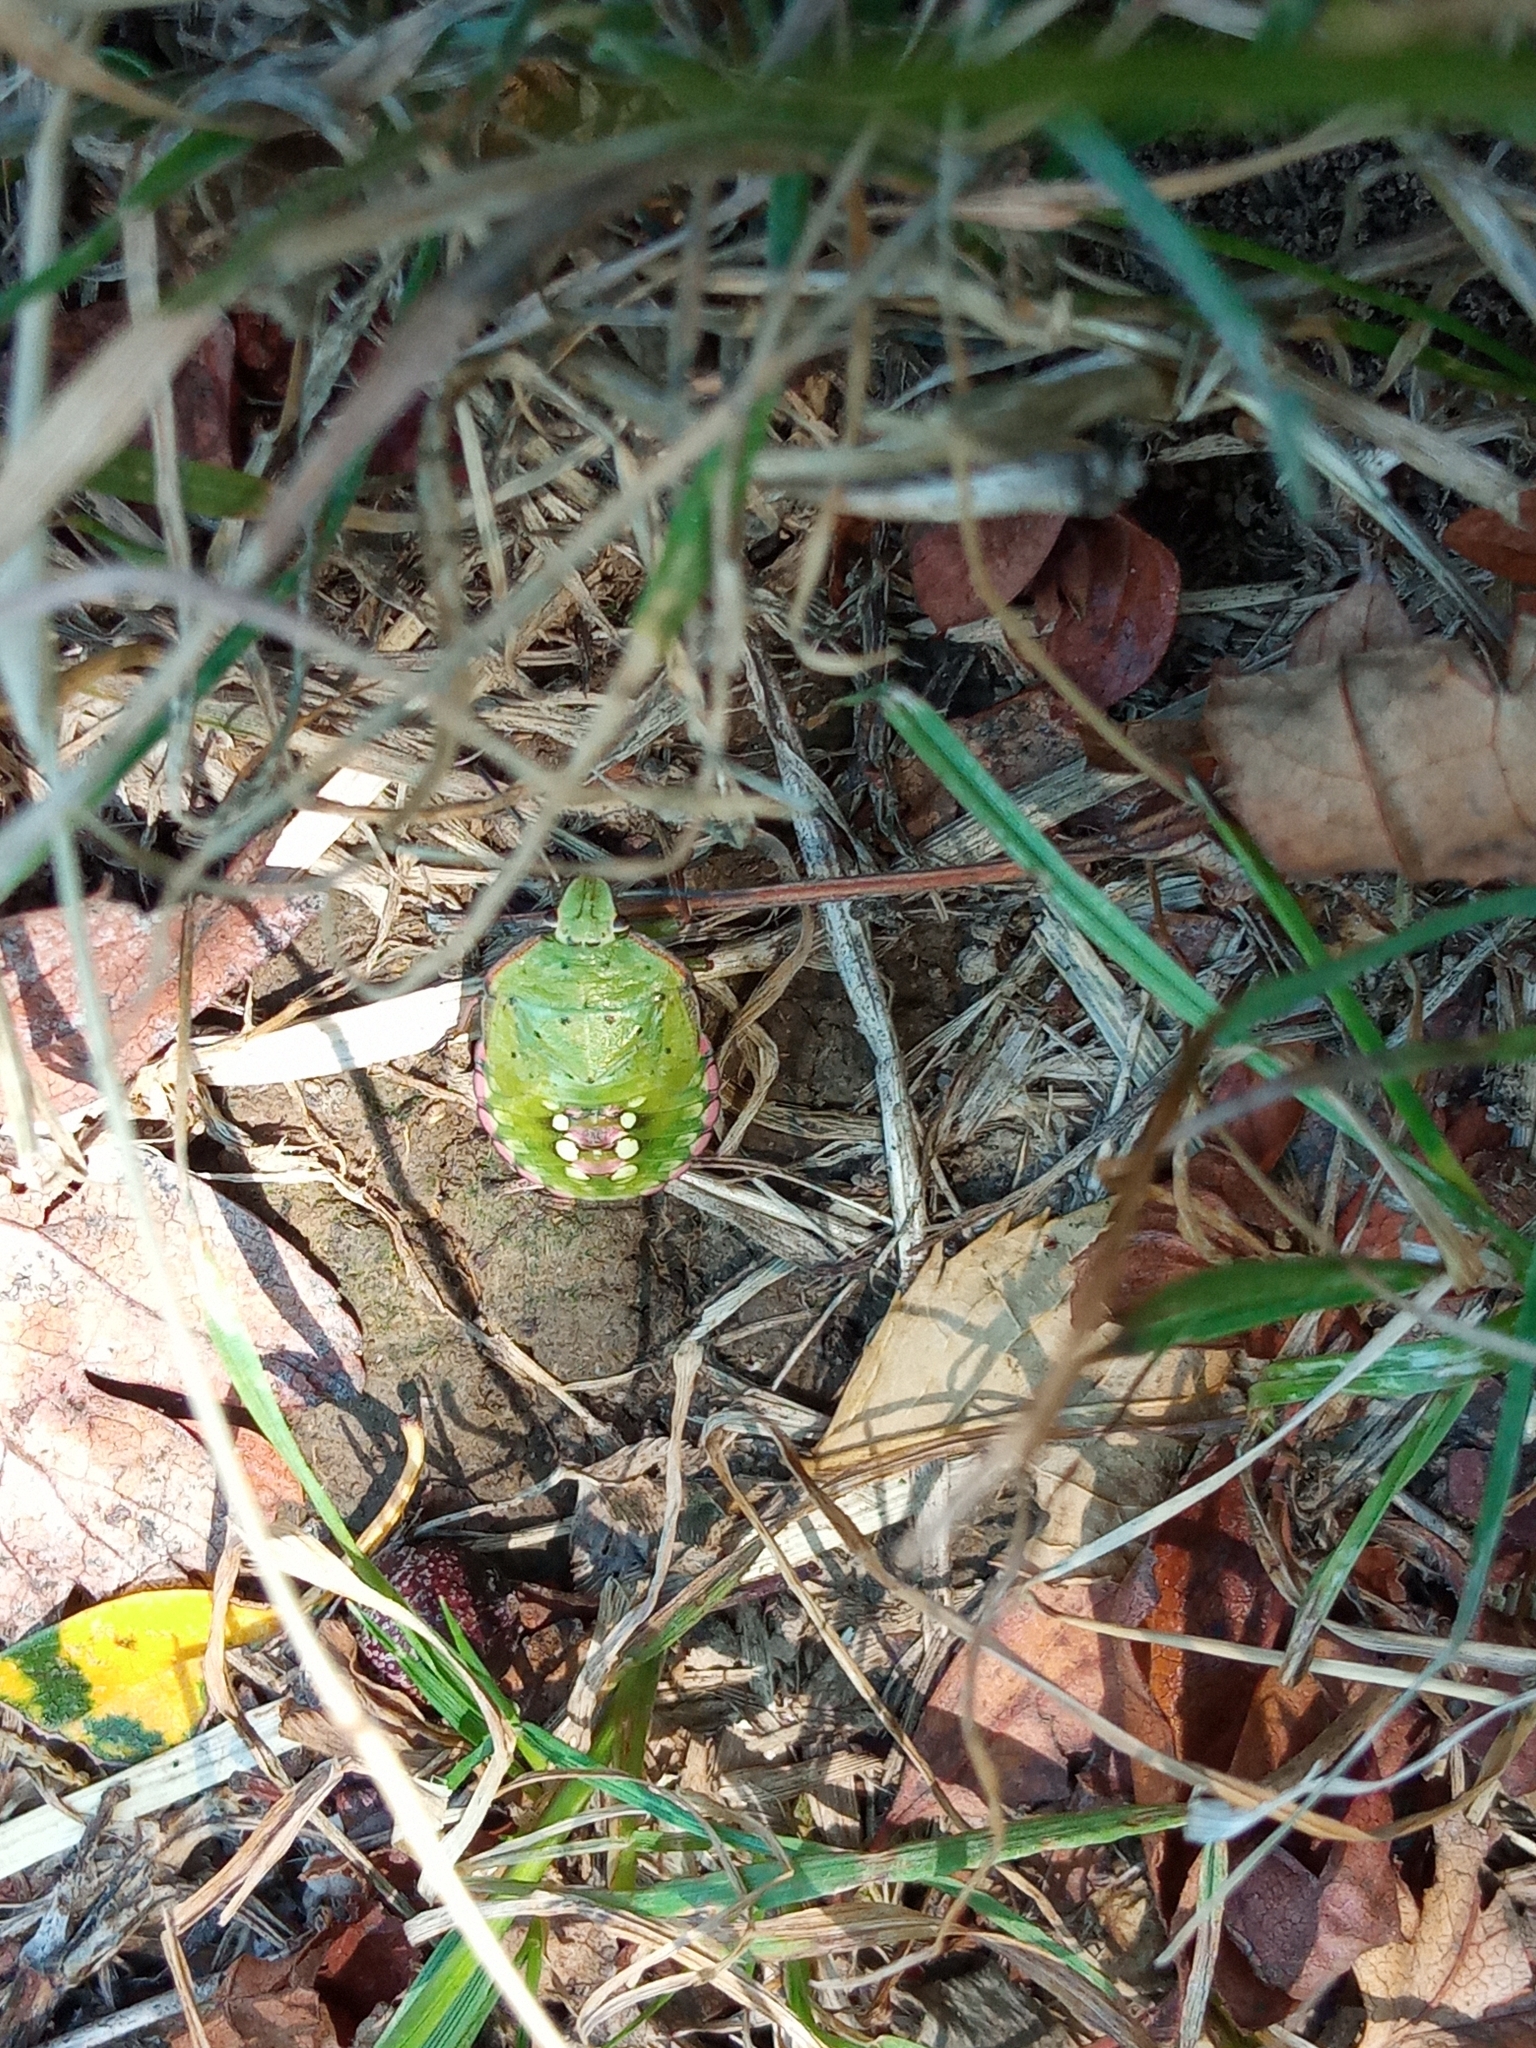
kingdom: Animalia
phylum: Arthropoda
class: Insecta
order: Hemiptera
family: Pentatomidae
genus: Nezara
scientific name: Nezara viridula
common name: Southern green stink bug
